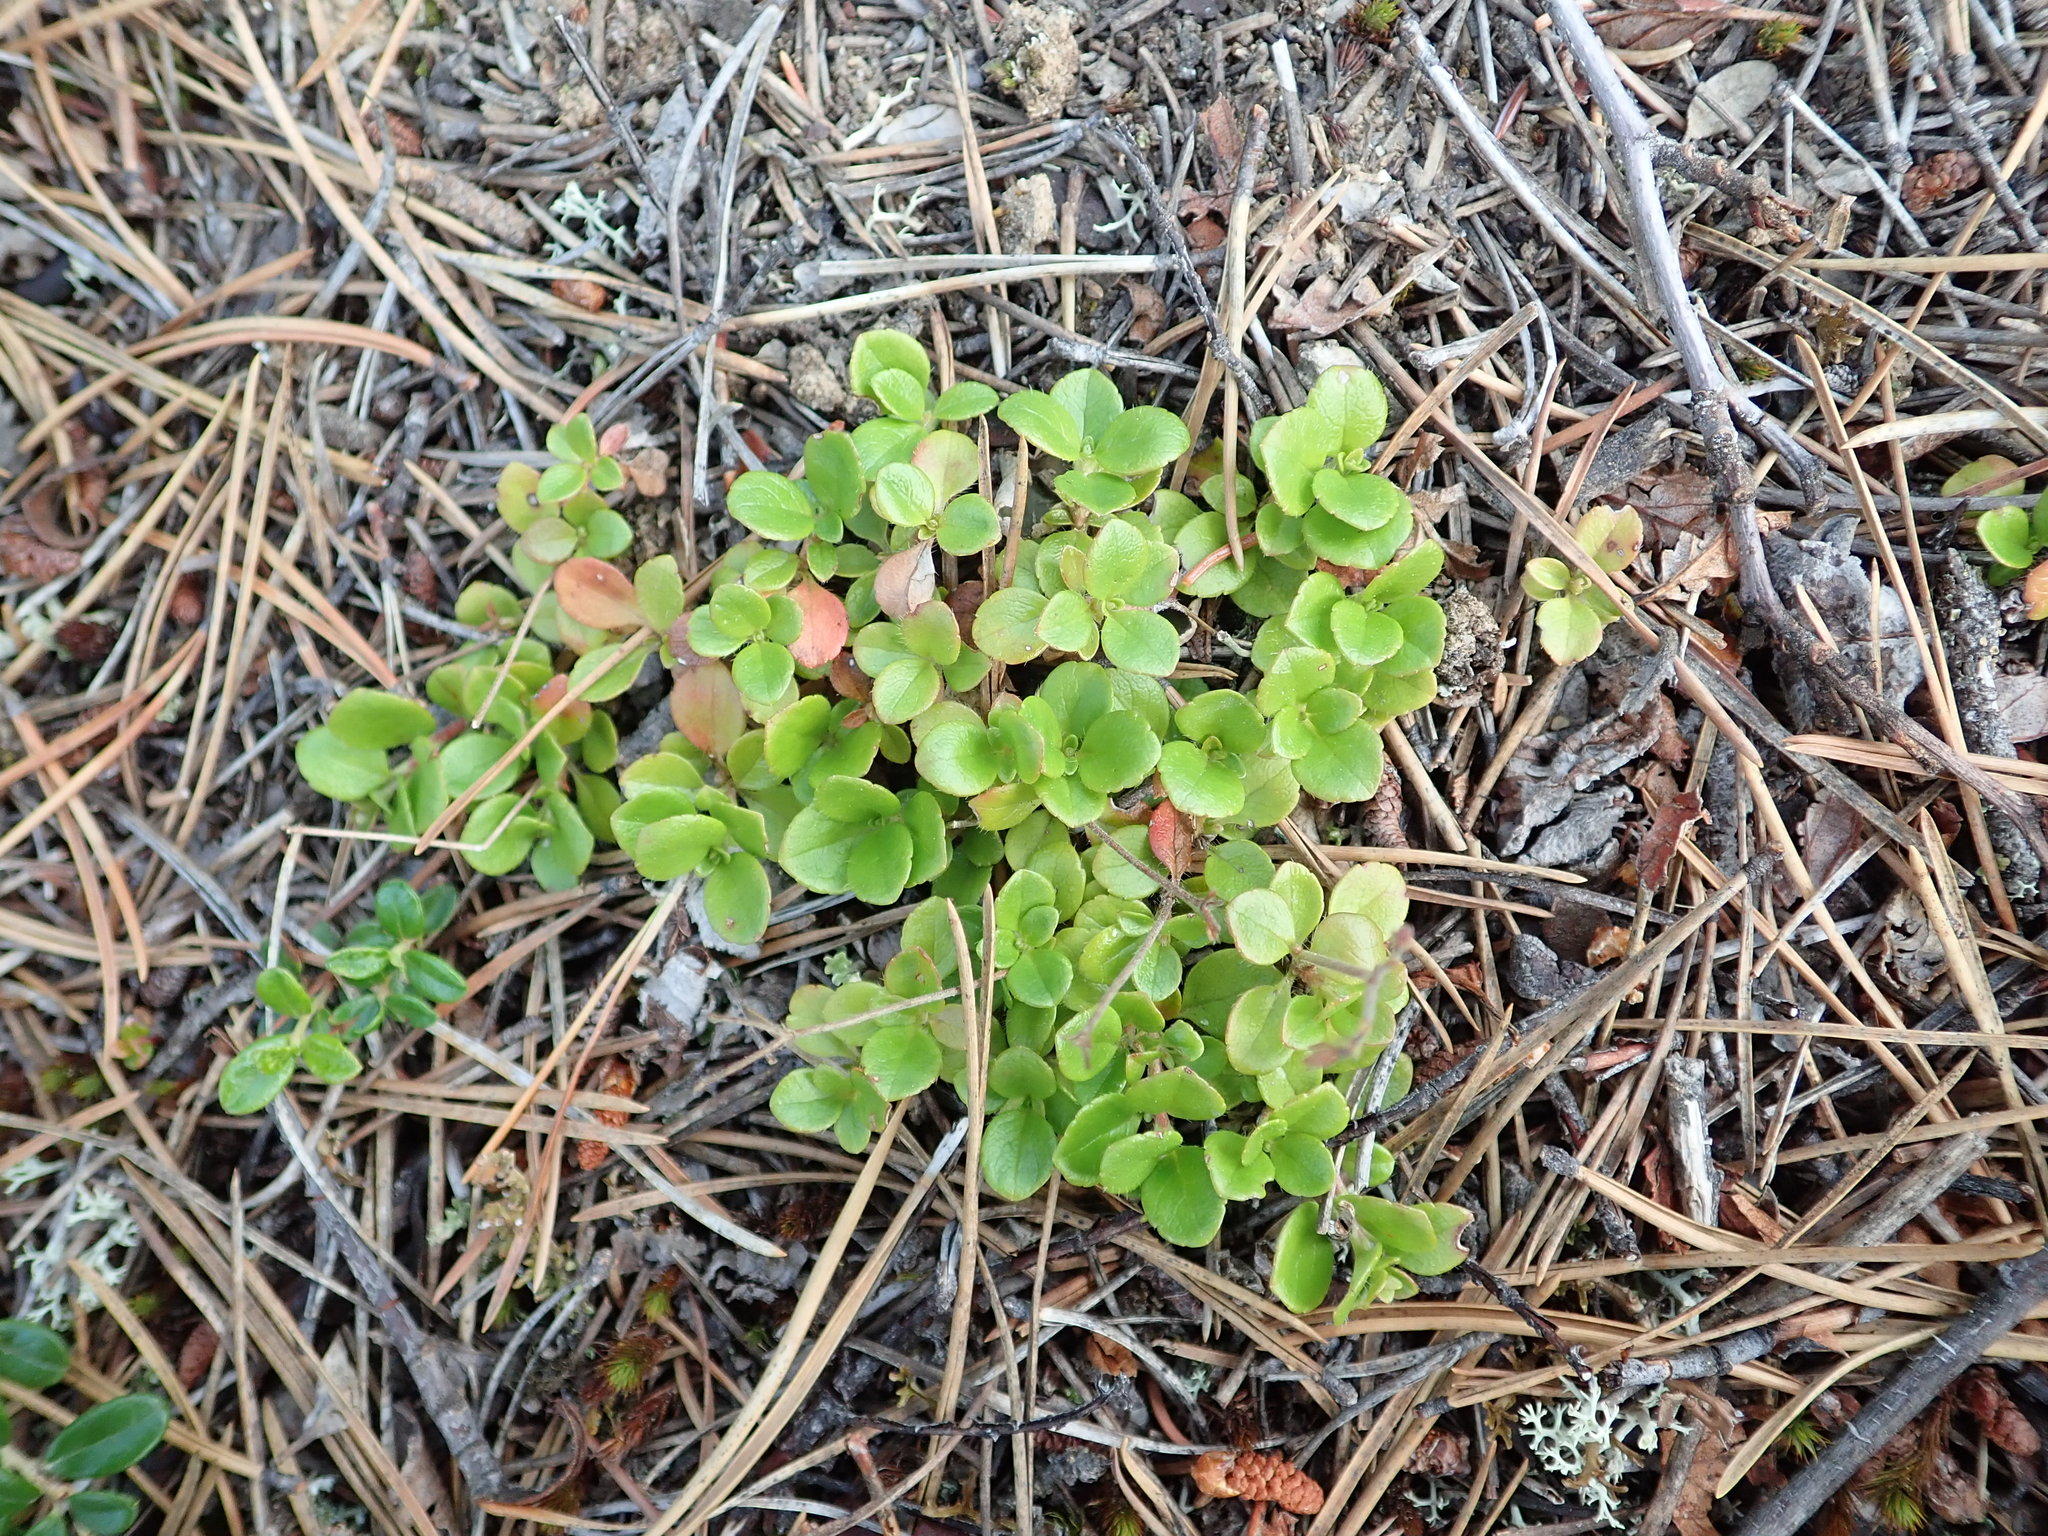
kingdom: Plantae
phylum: Tracheophyta
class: Magnoliopsida
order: Dipsacales
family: Caprifoliaceae
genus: Linnaea
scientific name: Linnaea borealis
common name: Twinflower
